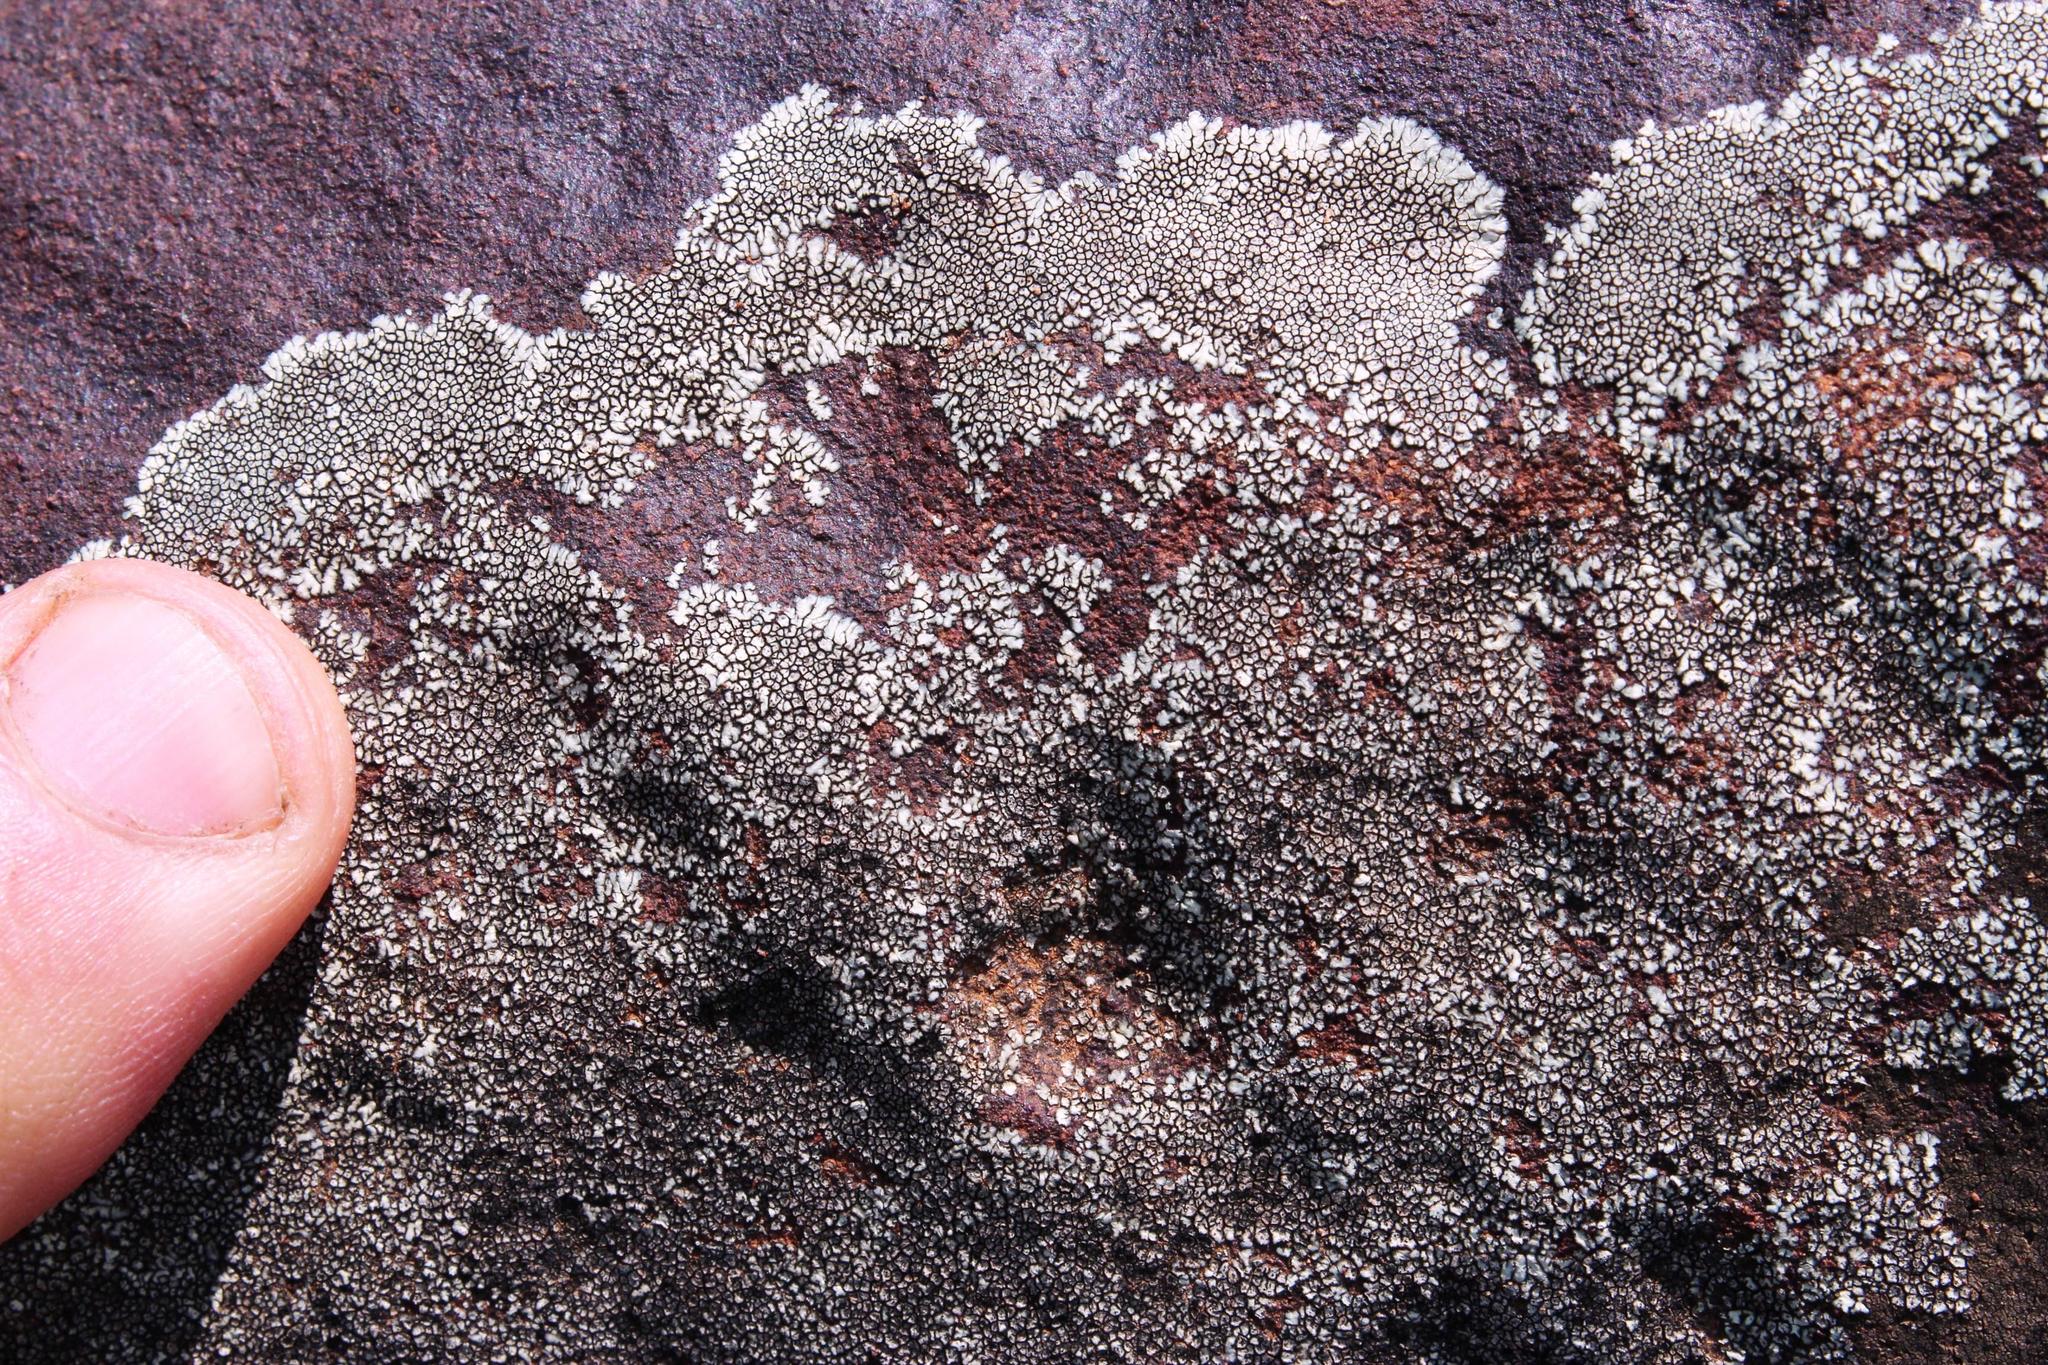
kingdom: Fungi
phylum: Ascomycota
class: Lecanoromycetes
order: Caliciales
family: Caliciaceae
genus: Dimelaena
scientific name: Dimelaena australiensis
